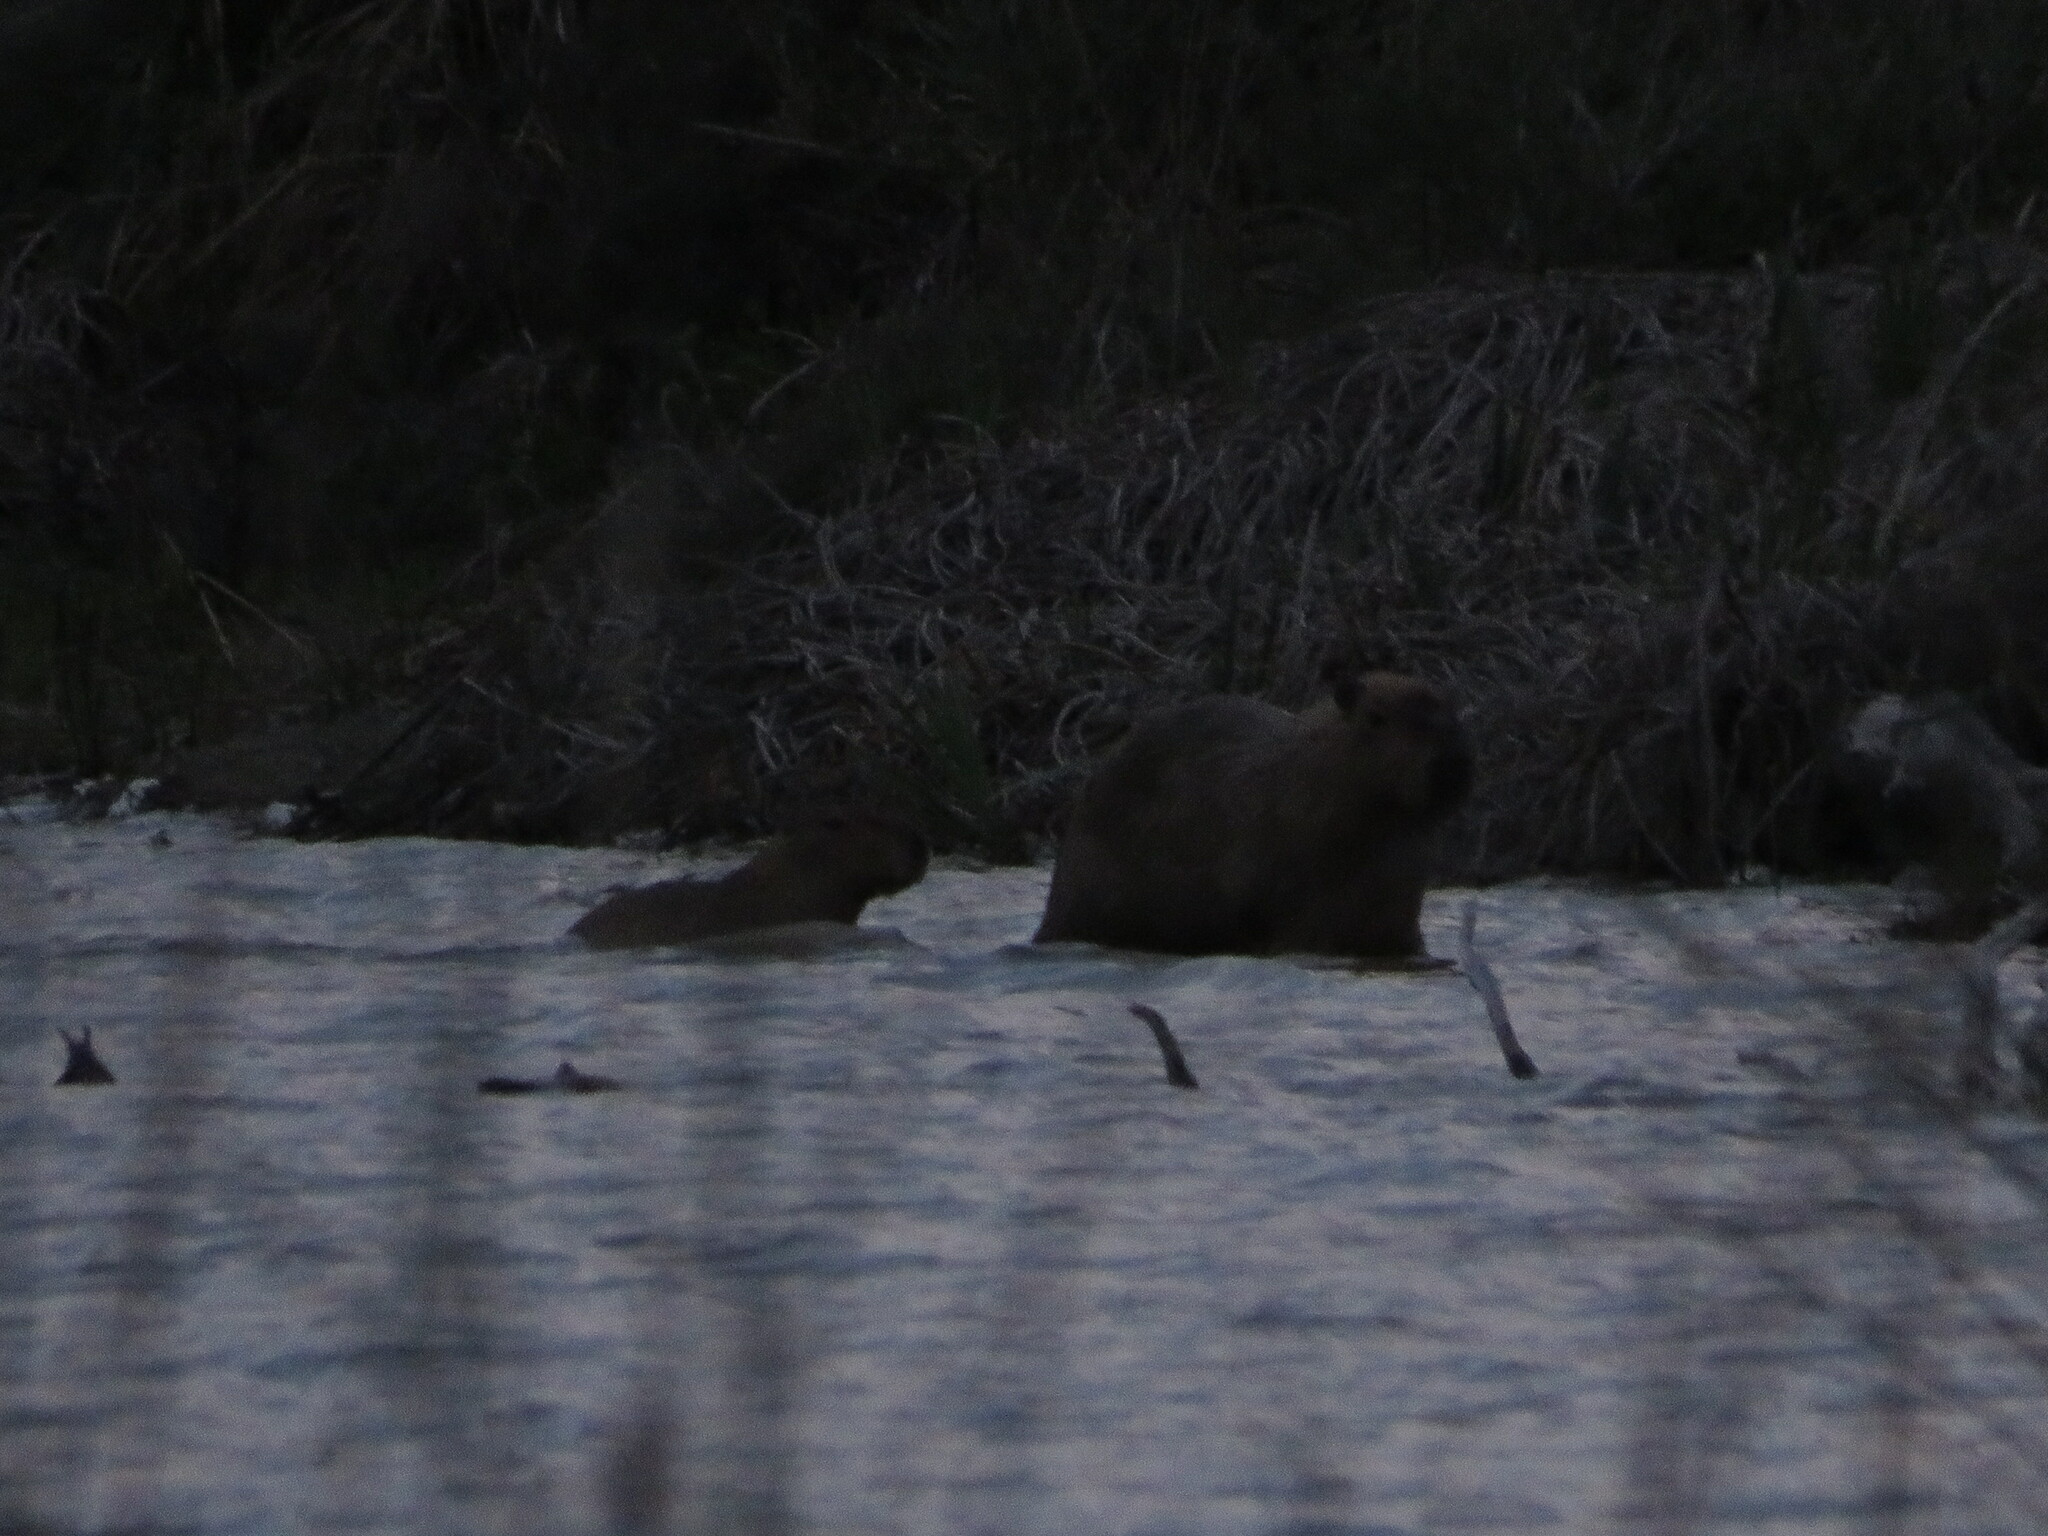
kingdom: Animalia
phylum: Chordata
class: Mammalia
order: Rodentia
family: Caviidae
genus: Hydrochoerus
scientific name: Hydrochoerus hydrochaeris
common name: Capybara
